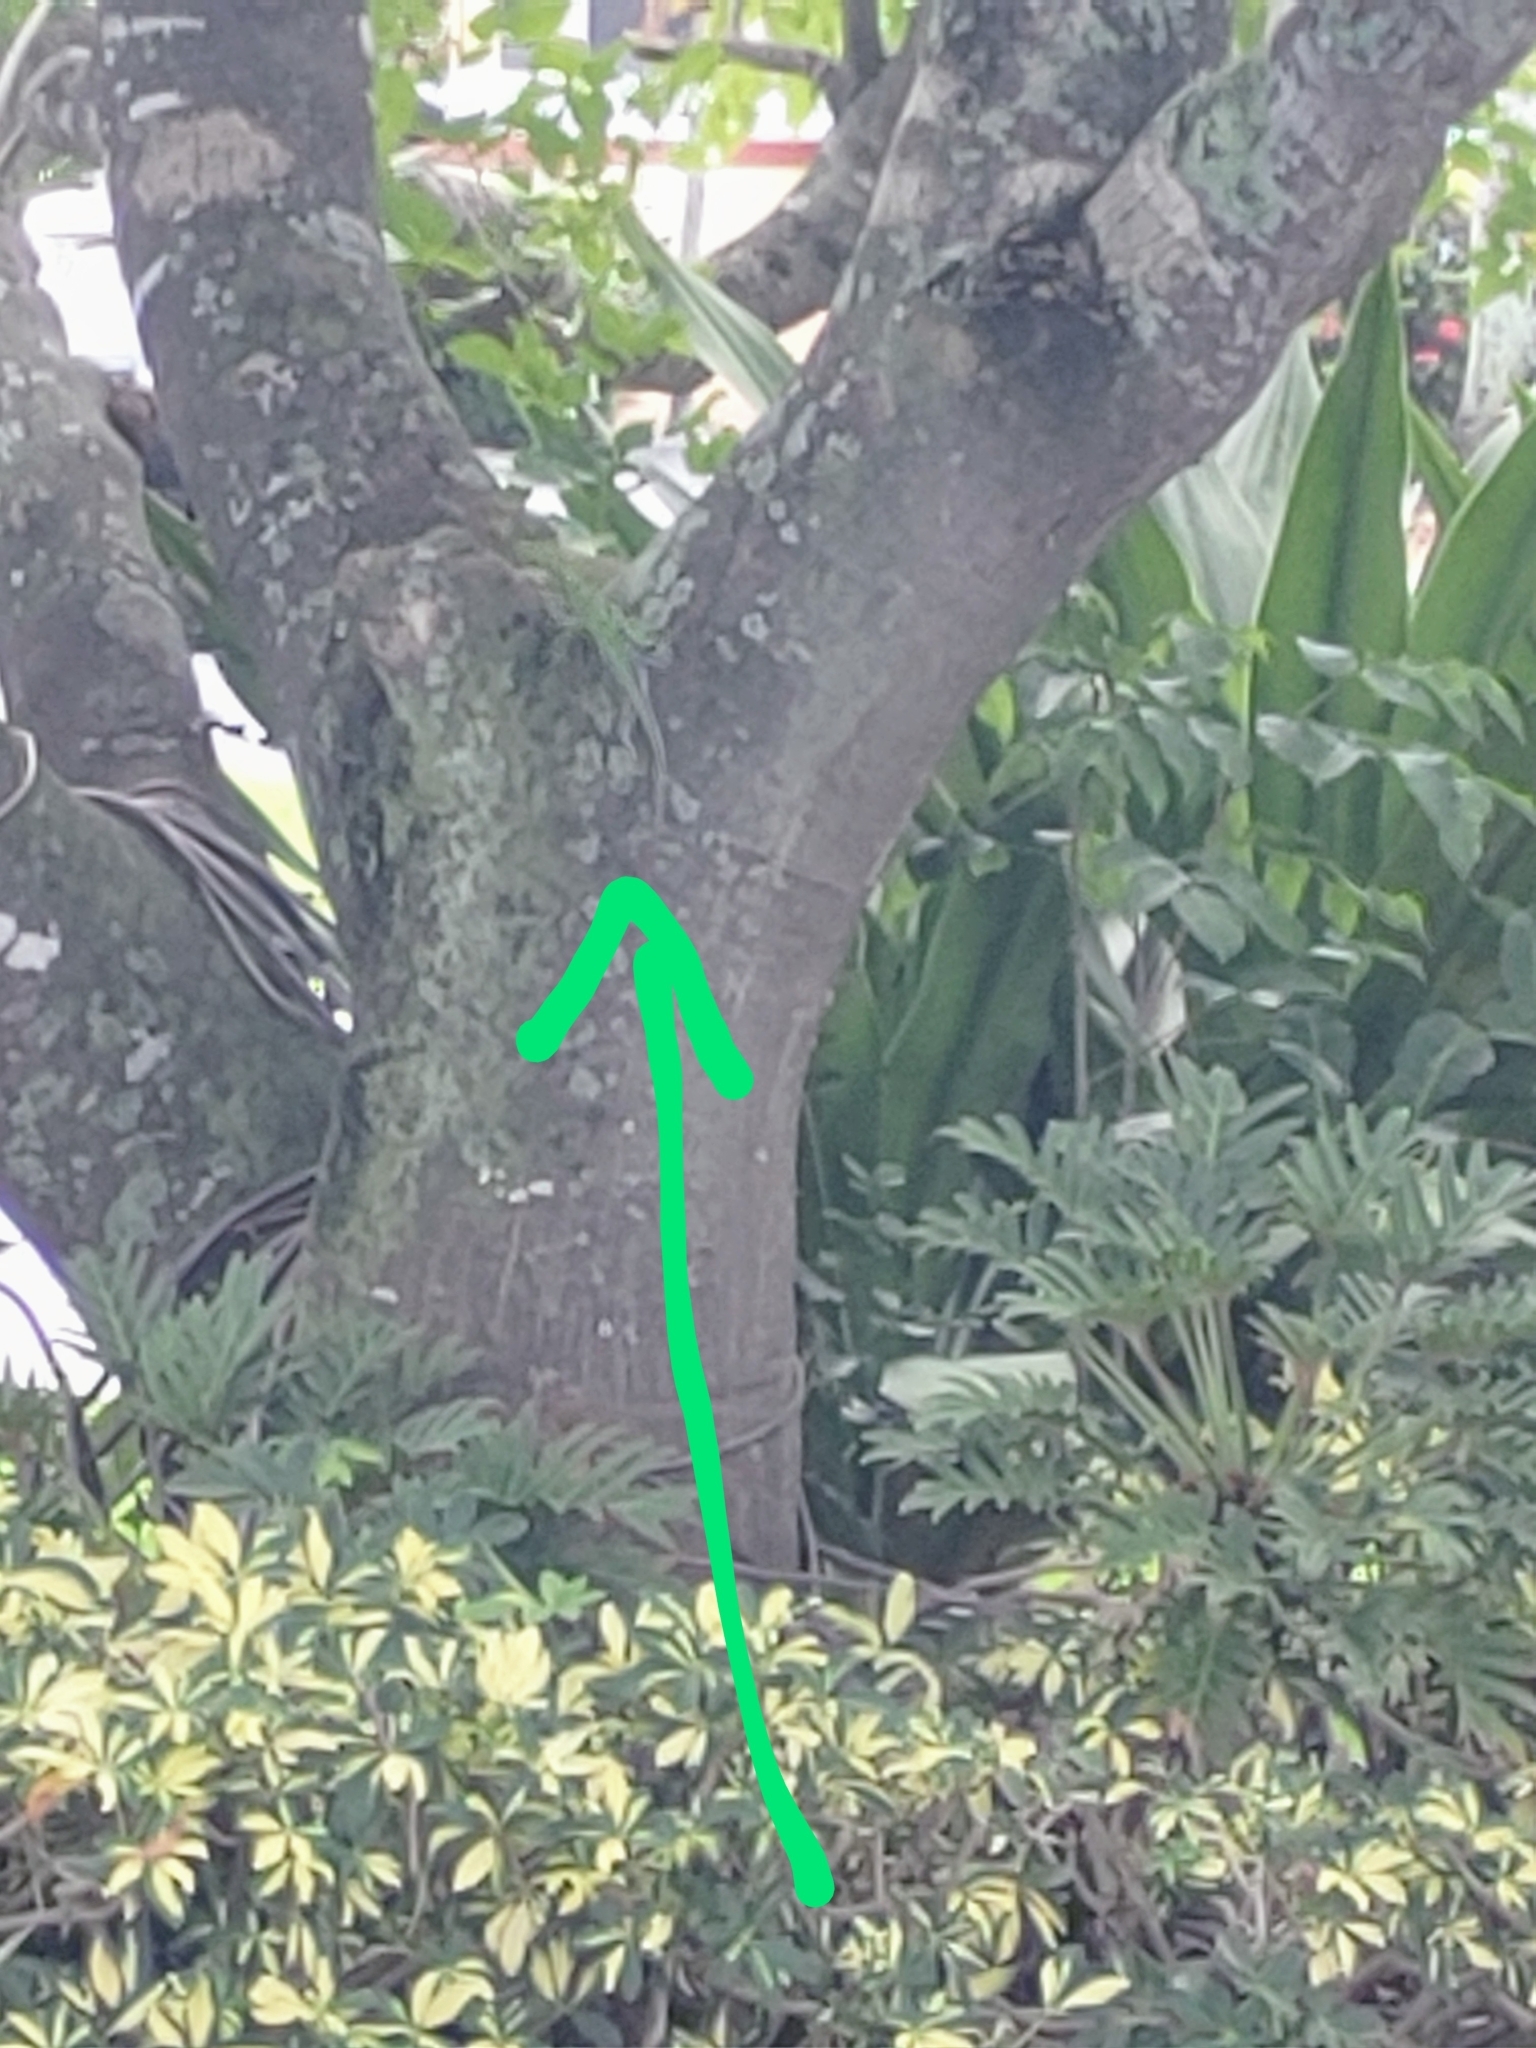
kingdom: Animalia
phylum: Chordata
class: Squamata
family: Dactyloidae
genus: Anolis
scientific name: Anolis equestris
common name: Knight anole
